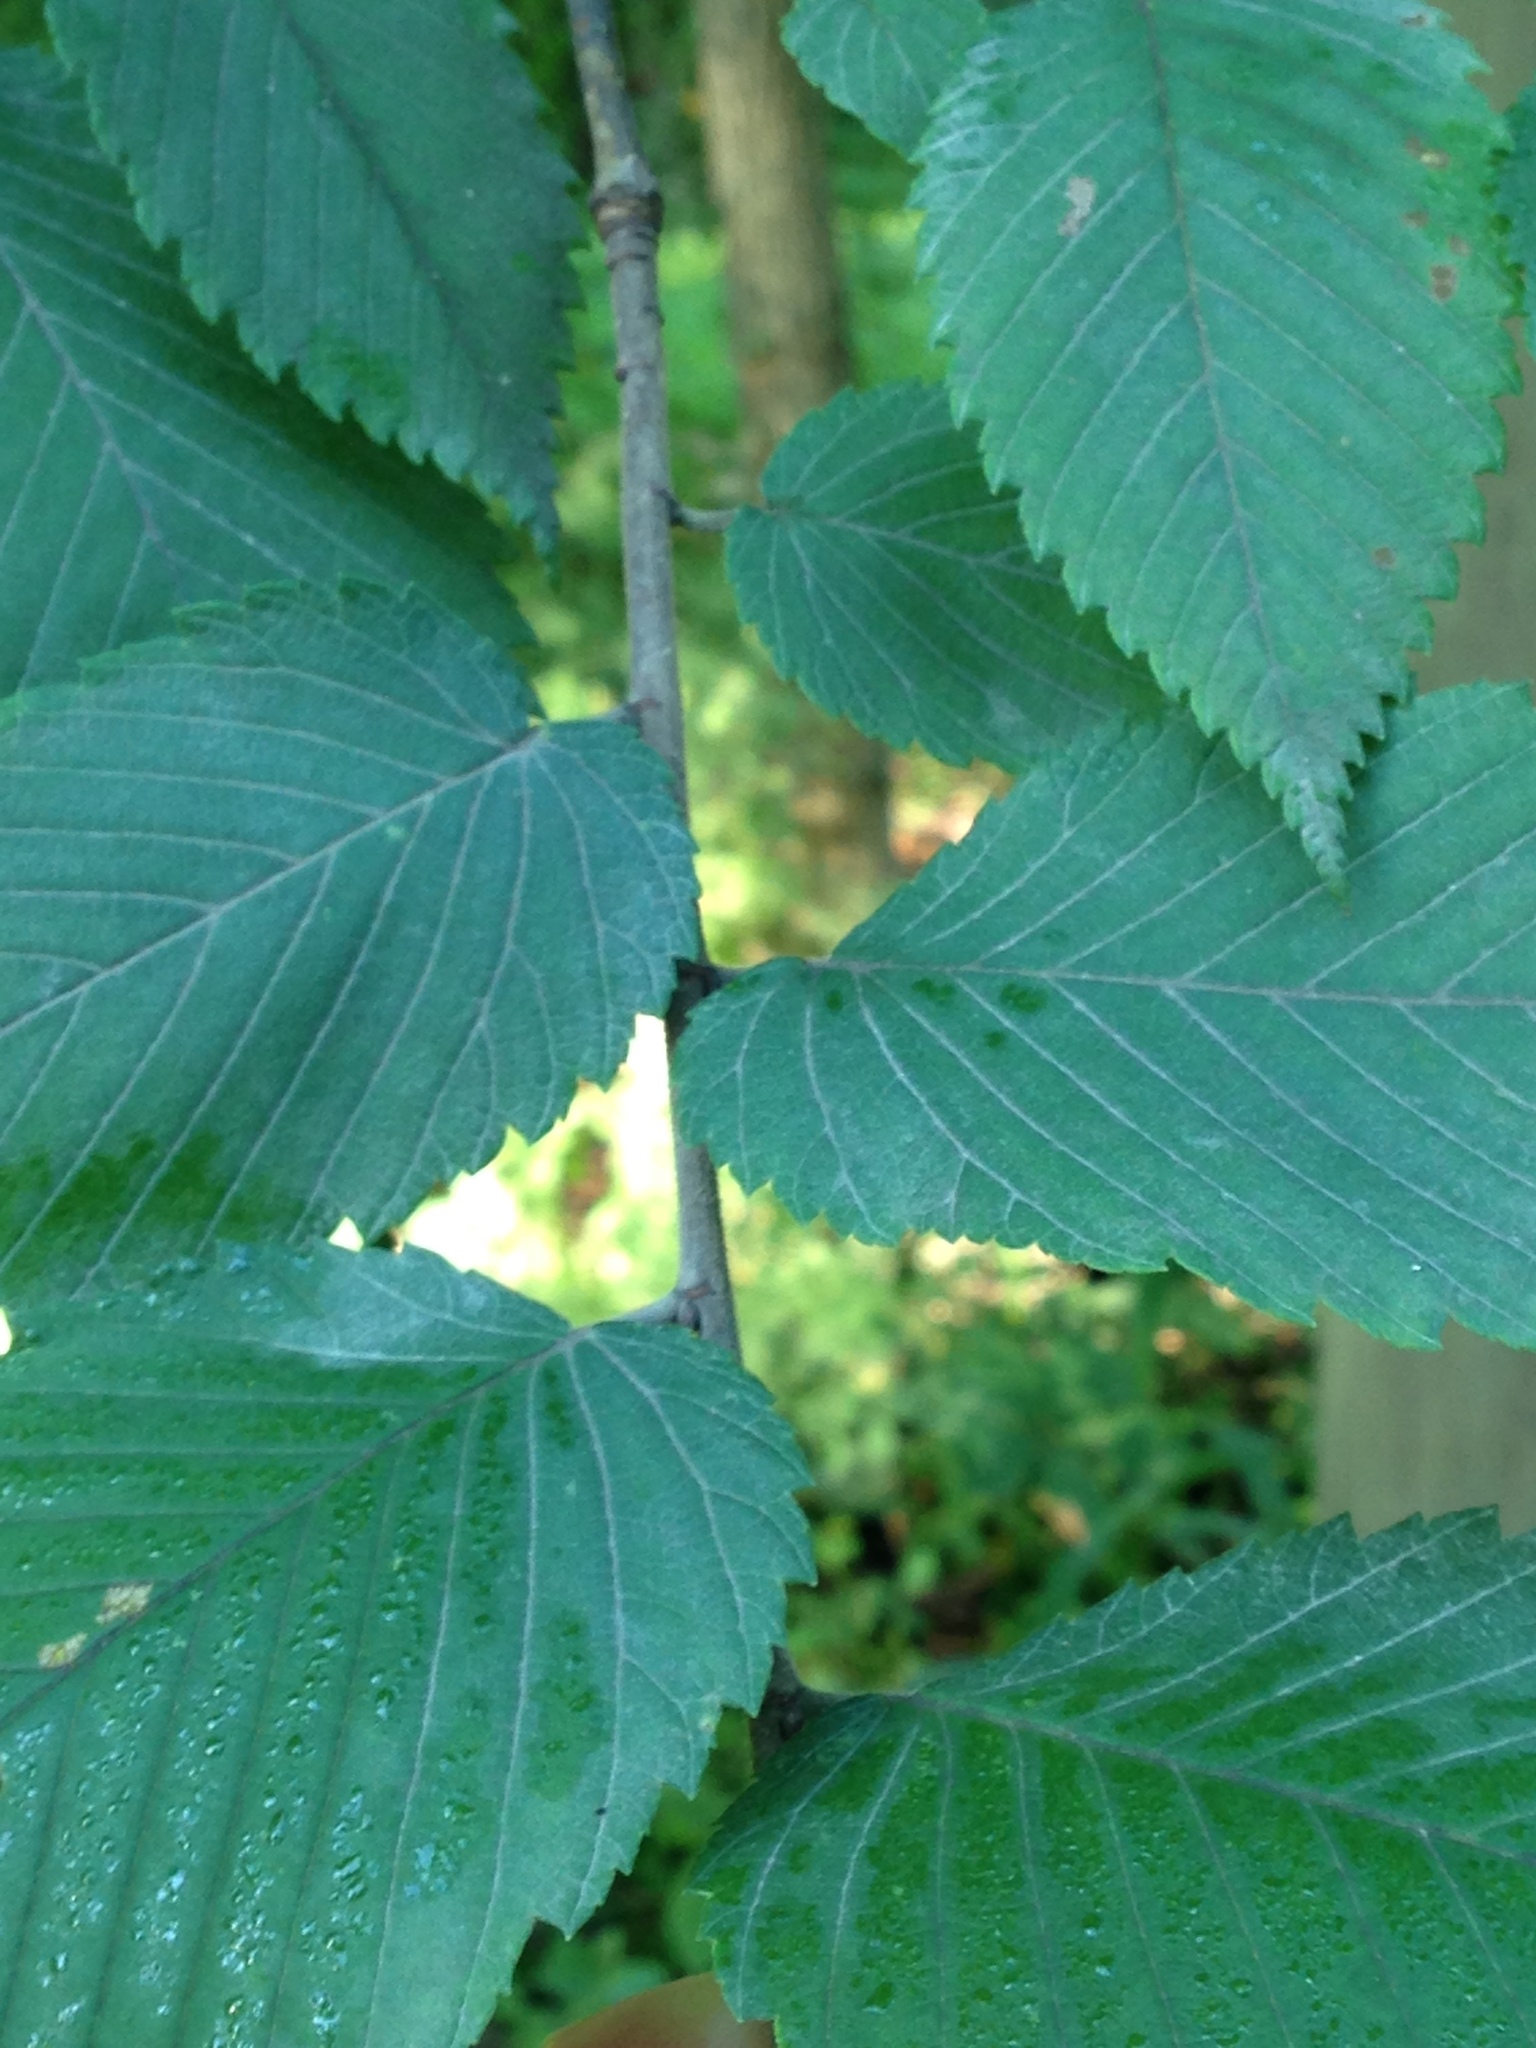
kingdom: Plantae
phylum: Tracheophyta
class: Magnoliopsida
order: Rosales
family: Ulmaceae
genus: Ulmus
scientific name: Ulmus americana
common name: American elm
